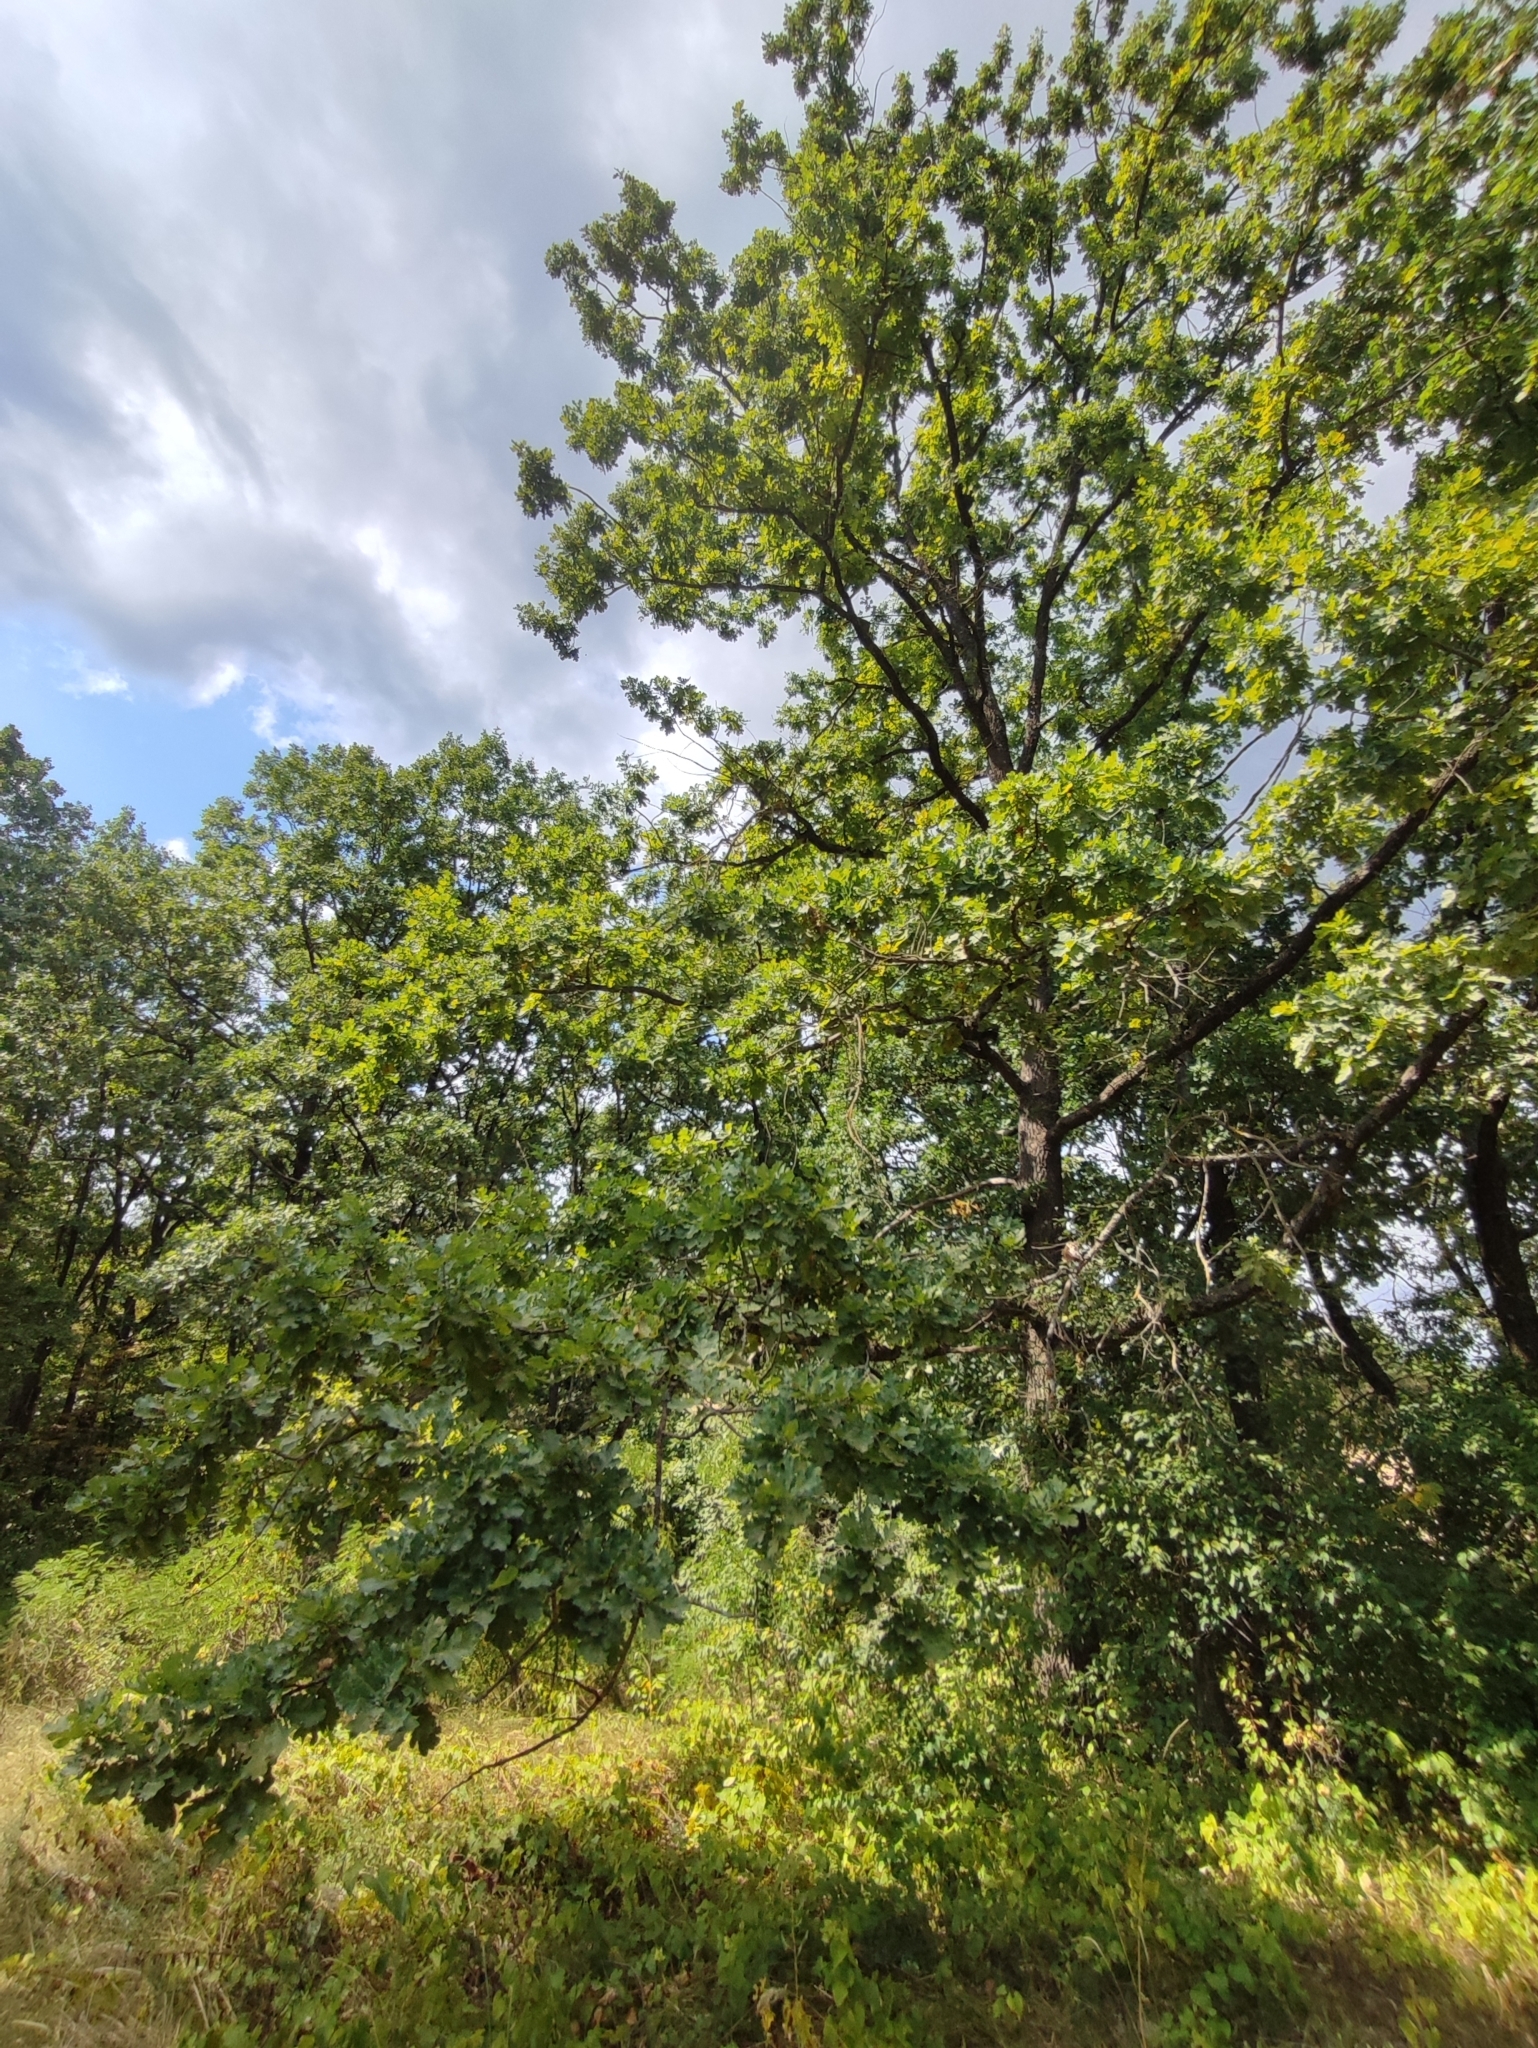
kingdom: Plantae
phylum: Tracheophyta
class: Magnoliopsida
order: Fagales
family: Fagaceae
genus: Quercus
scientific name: Quercus robur
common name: Pedunculate oak
